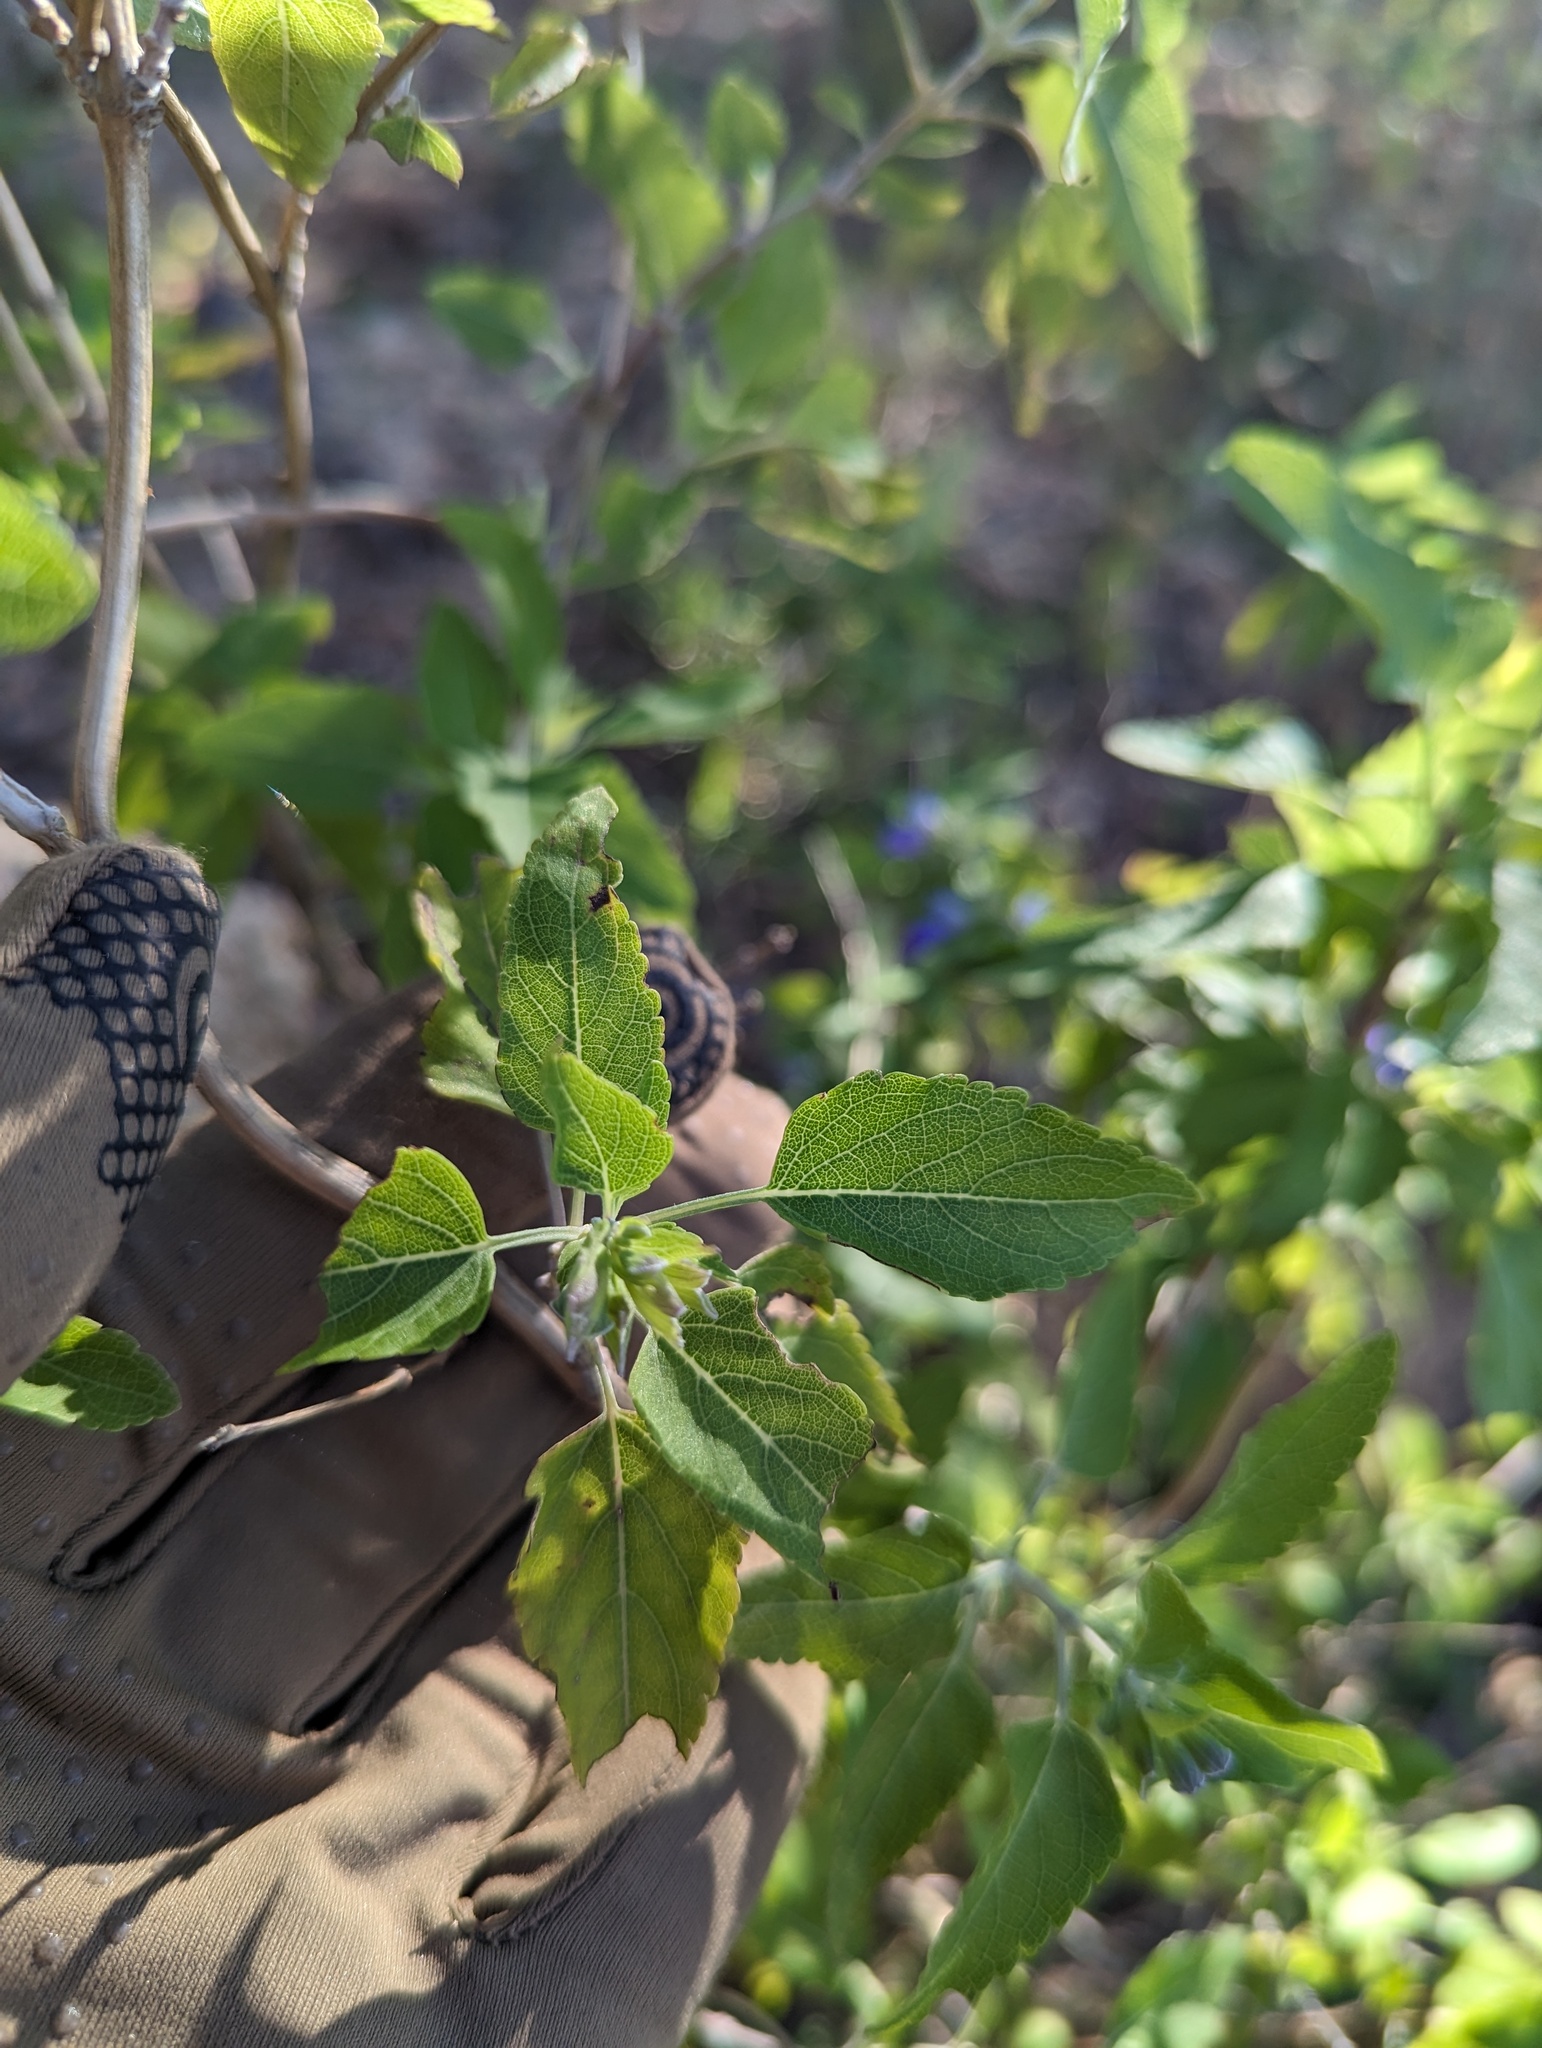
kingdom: Plantae
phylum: Tracheophyta
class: Magnoliopsida
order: Lamiales
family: Lamiaceae
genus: Salvia
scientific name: Salvia similis
